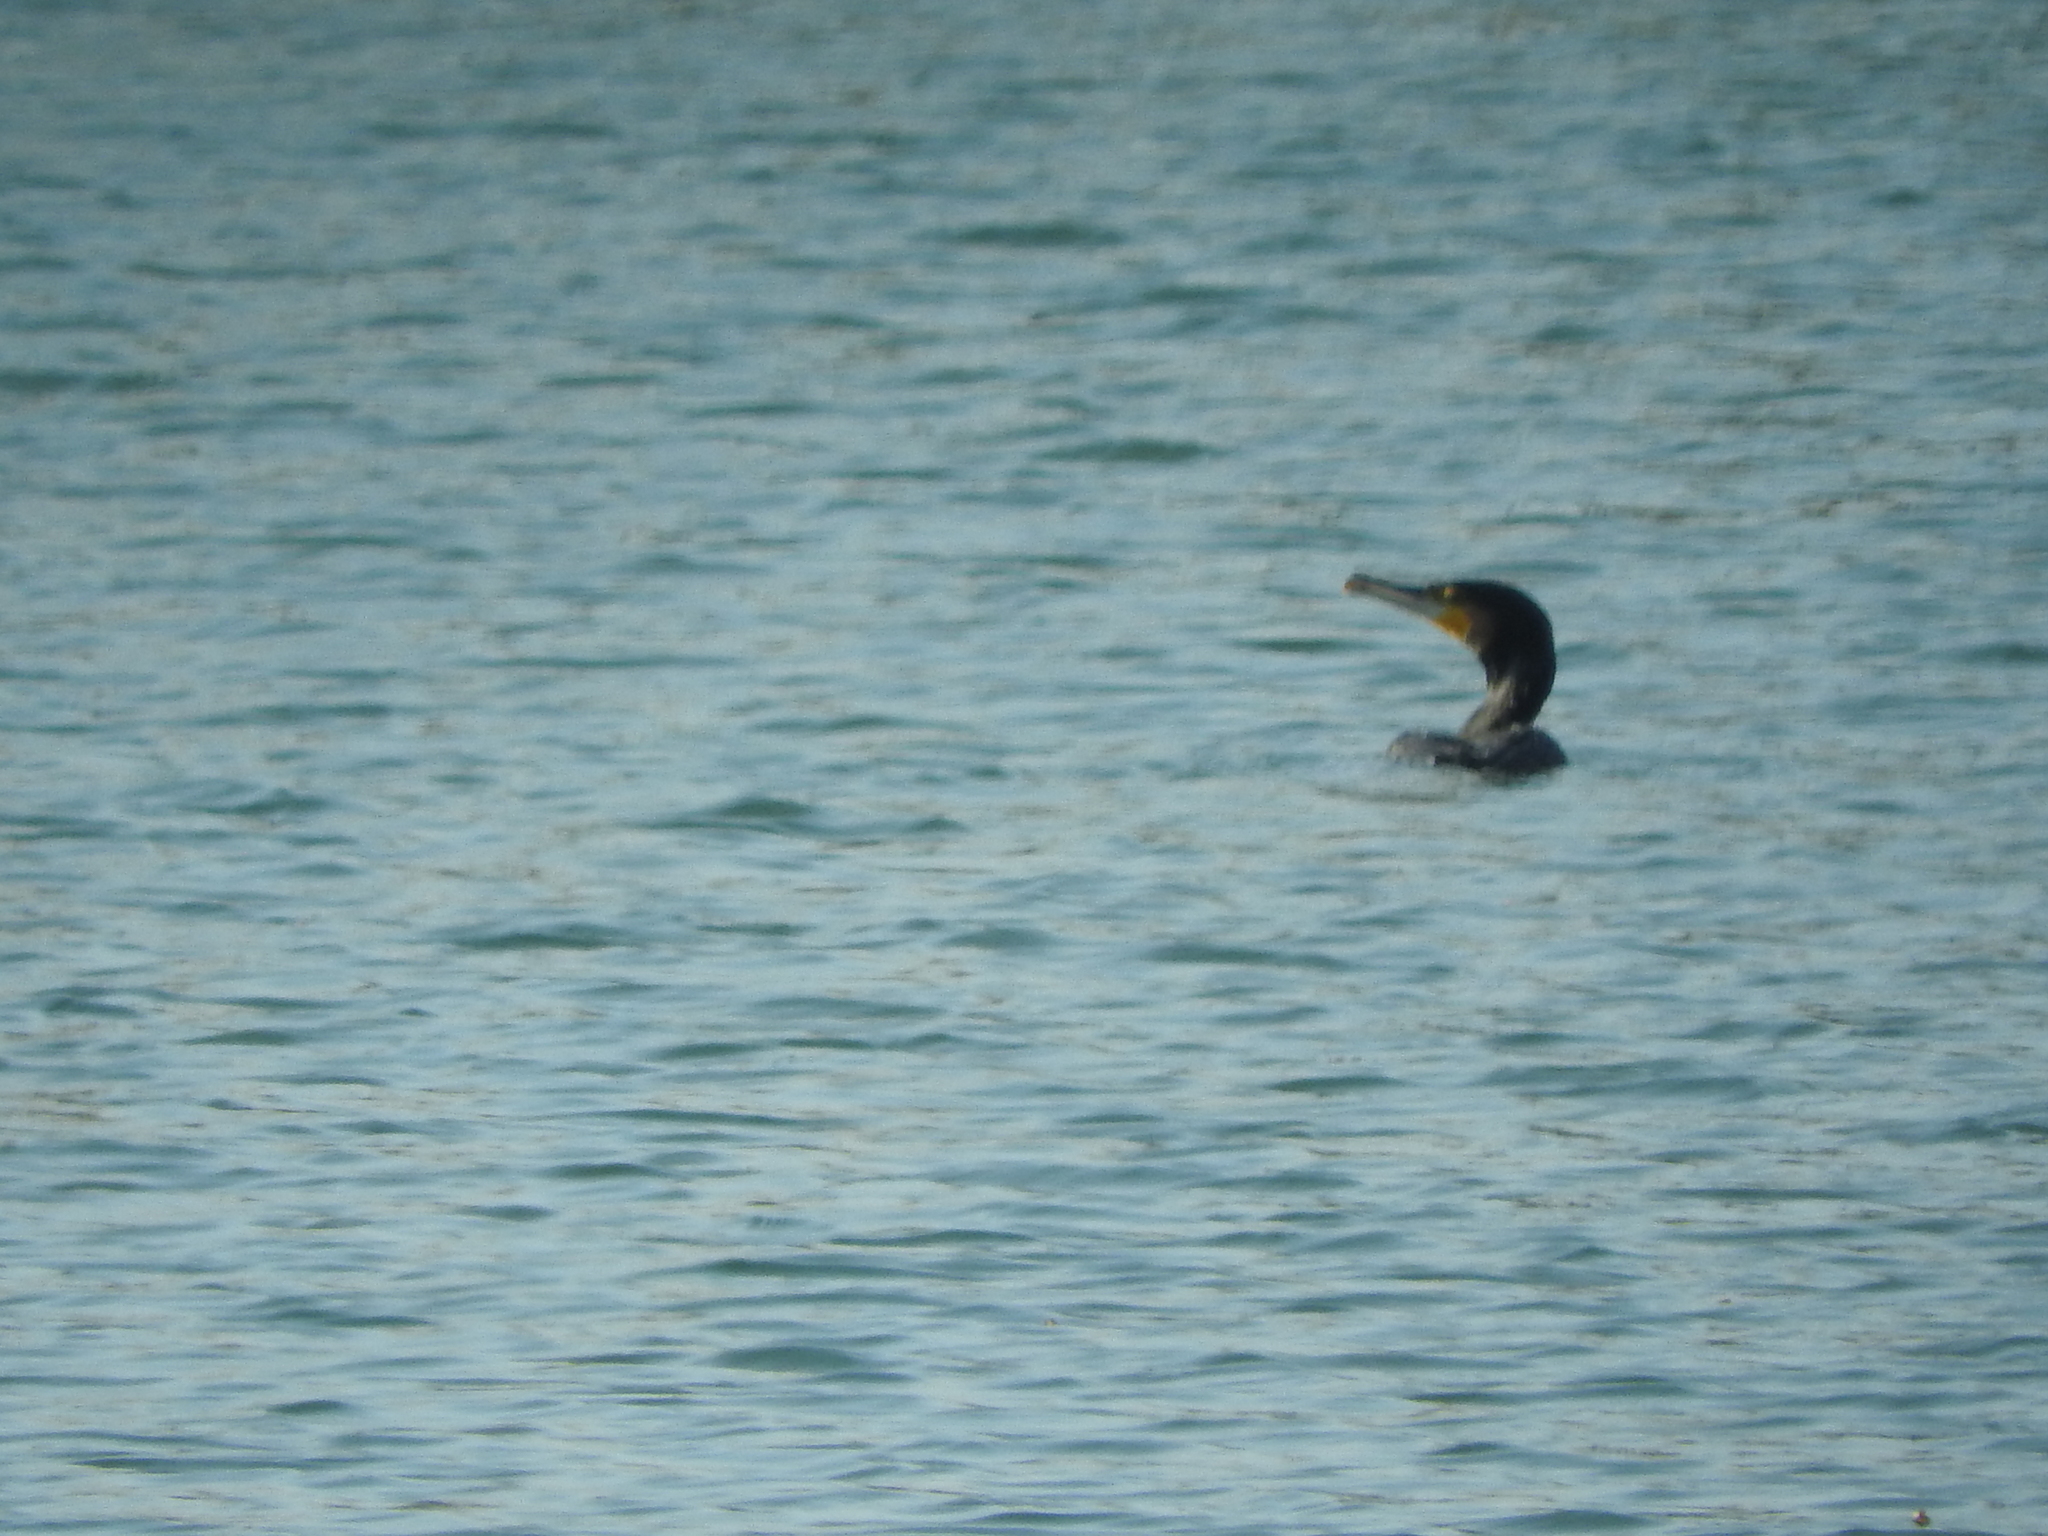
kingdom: Animalia
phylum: Chordata
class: Aves
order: Suliformes
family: Phalacrocoracidae
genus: Phalacrocorax
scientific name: Phalacrocorax carbo
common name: Great cormorant
